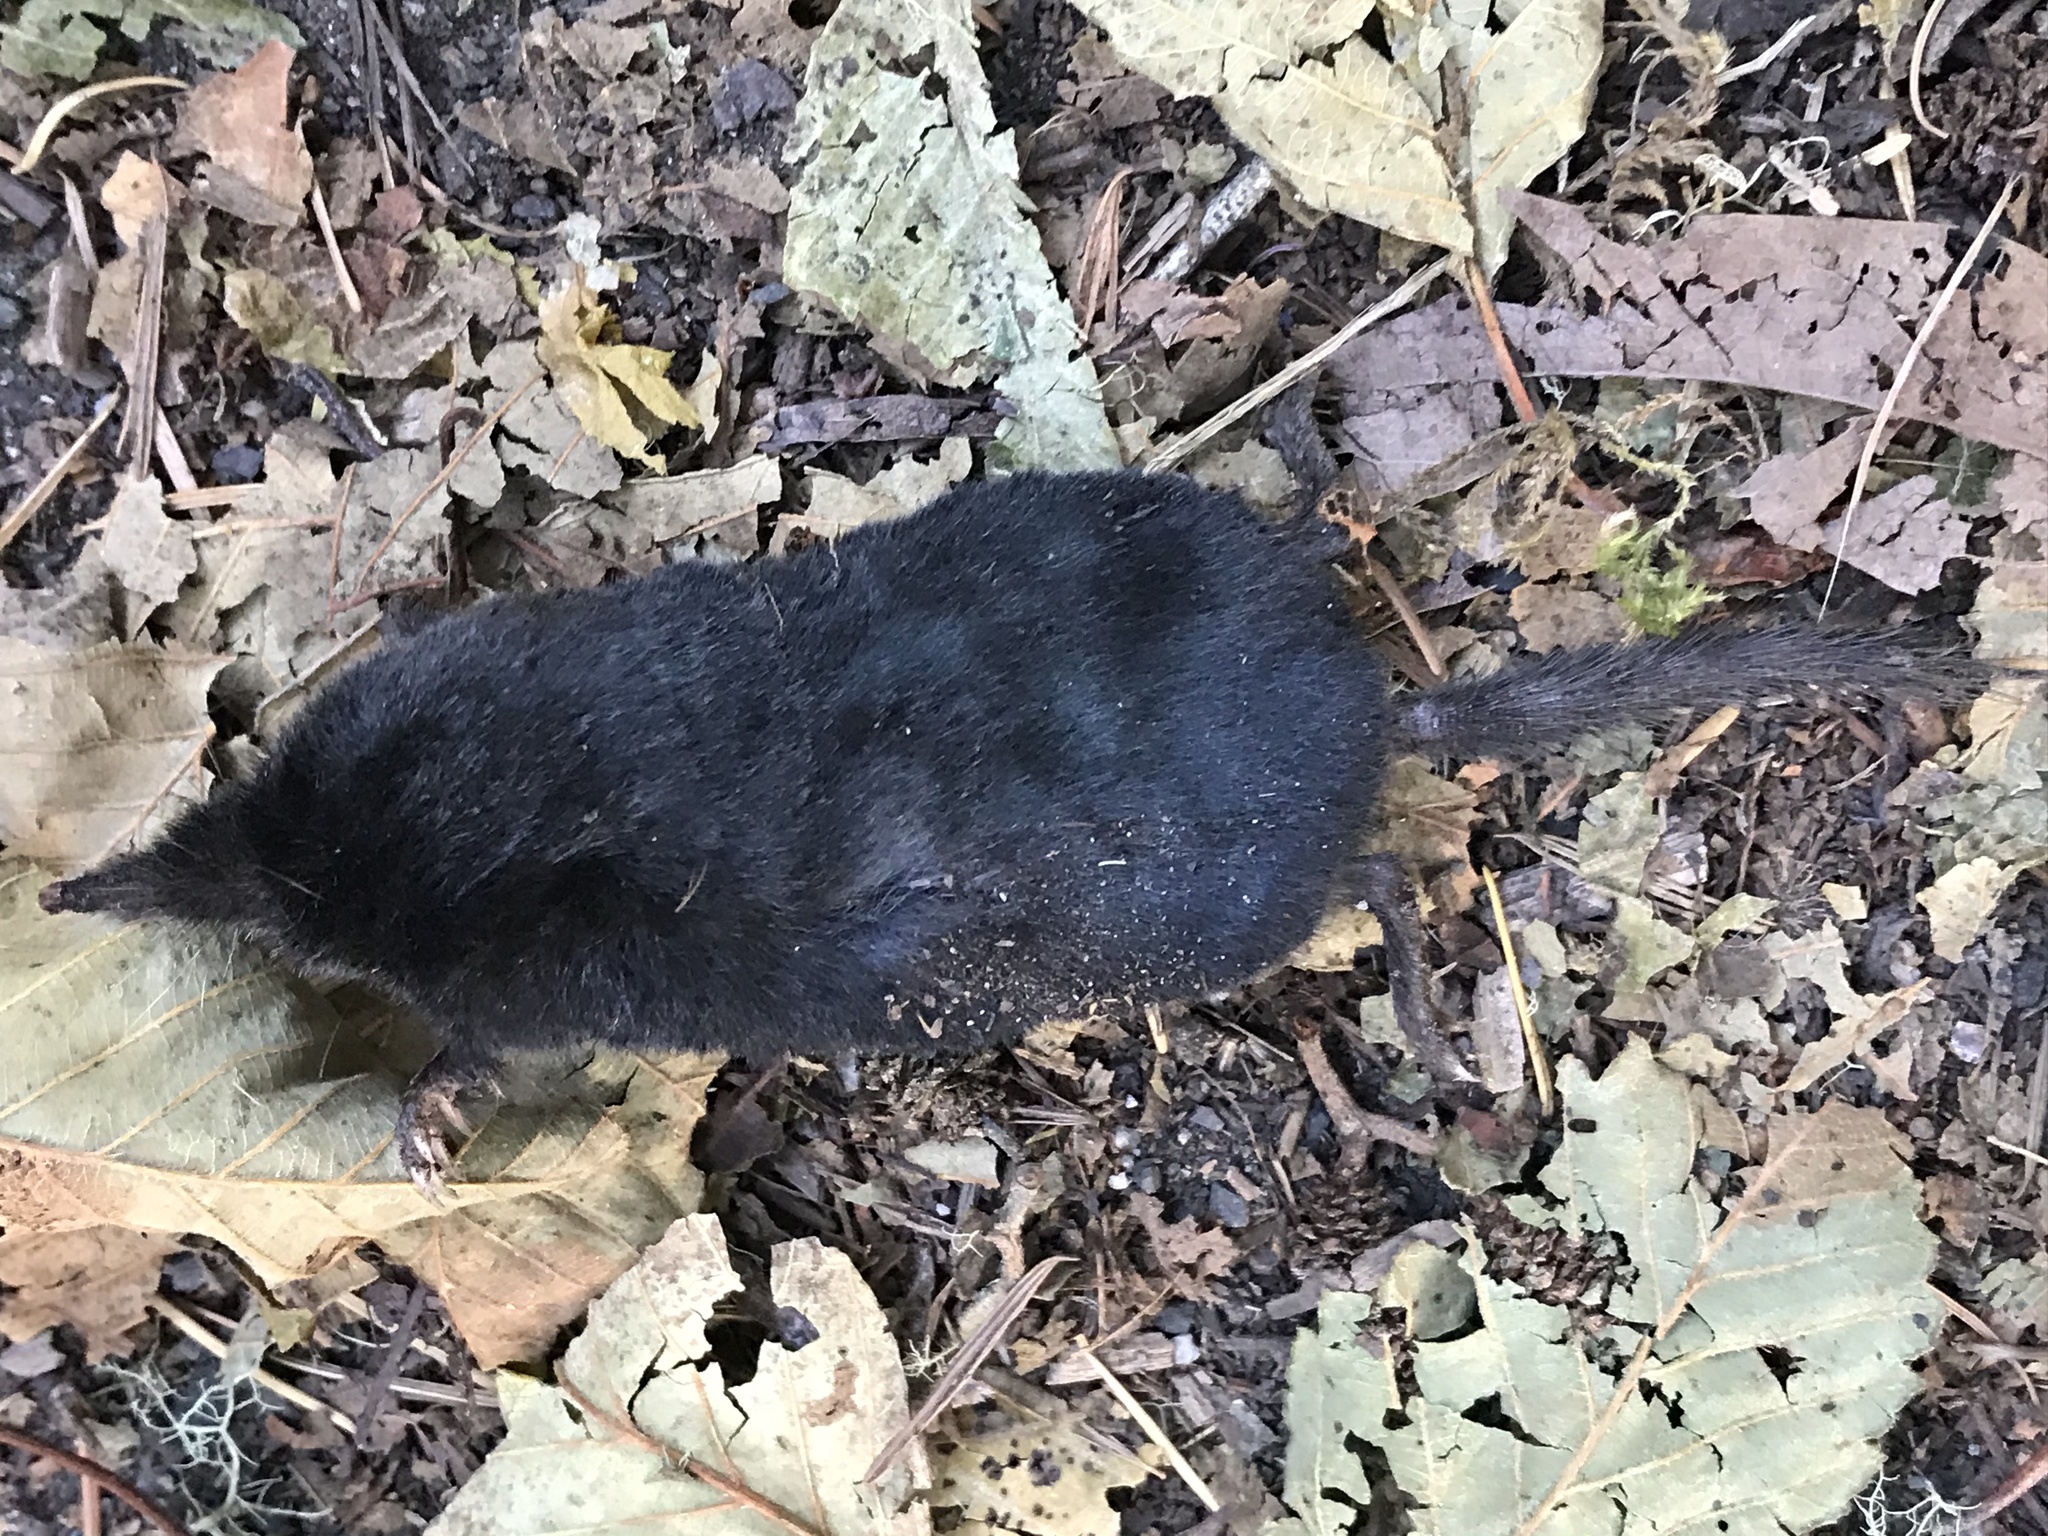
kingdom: Animalia
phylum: Chordata
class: Mammalia
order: Soricomorpha
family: Talpidae
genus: Neurotrichus
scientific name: Neurotrichus gibbsii
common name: American shrew mole
